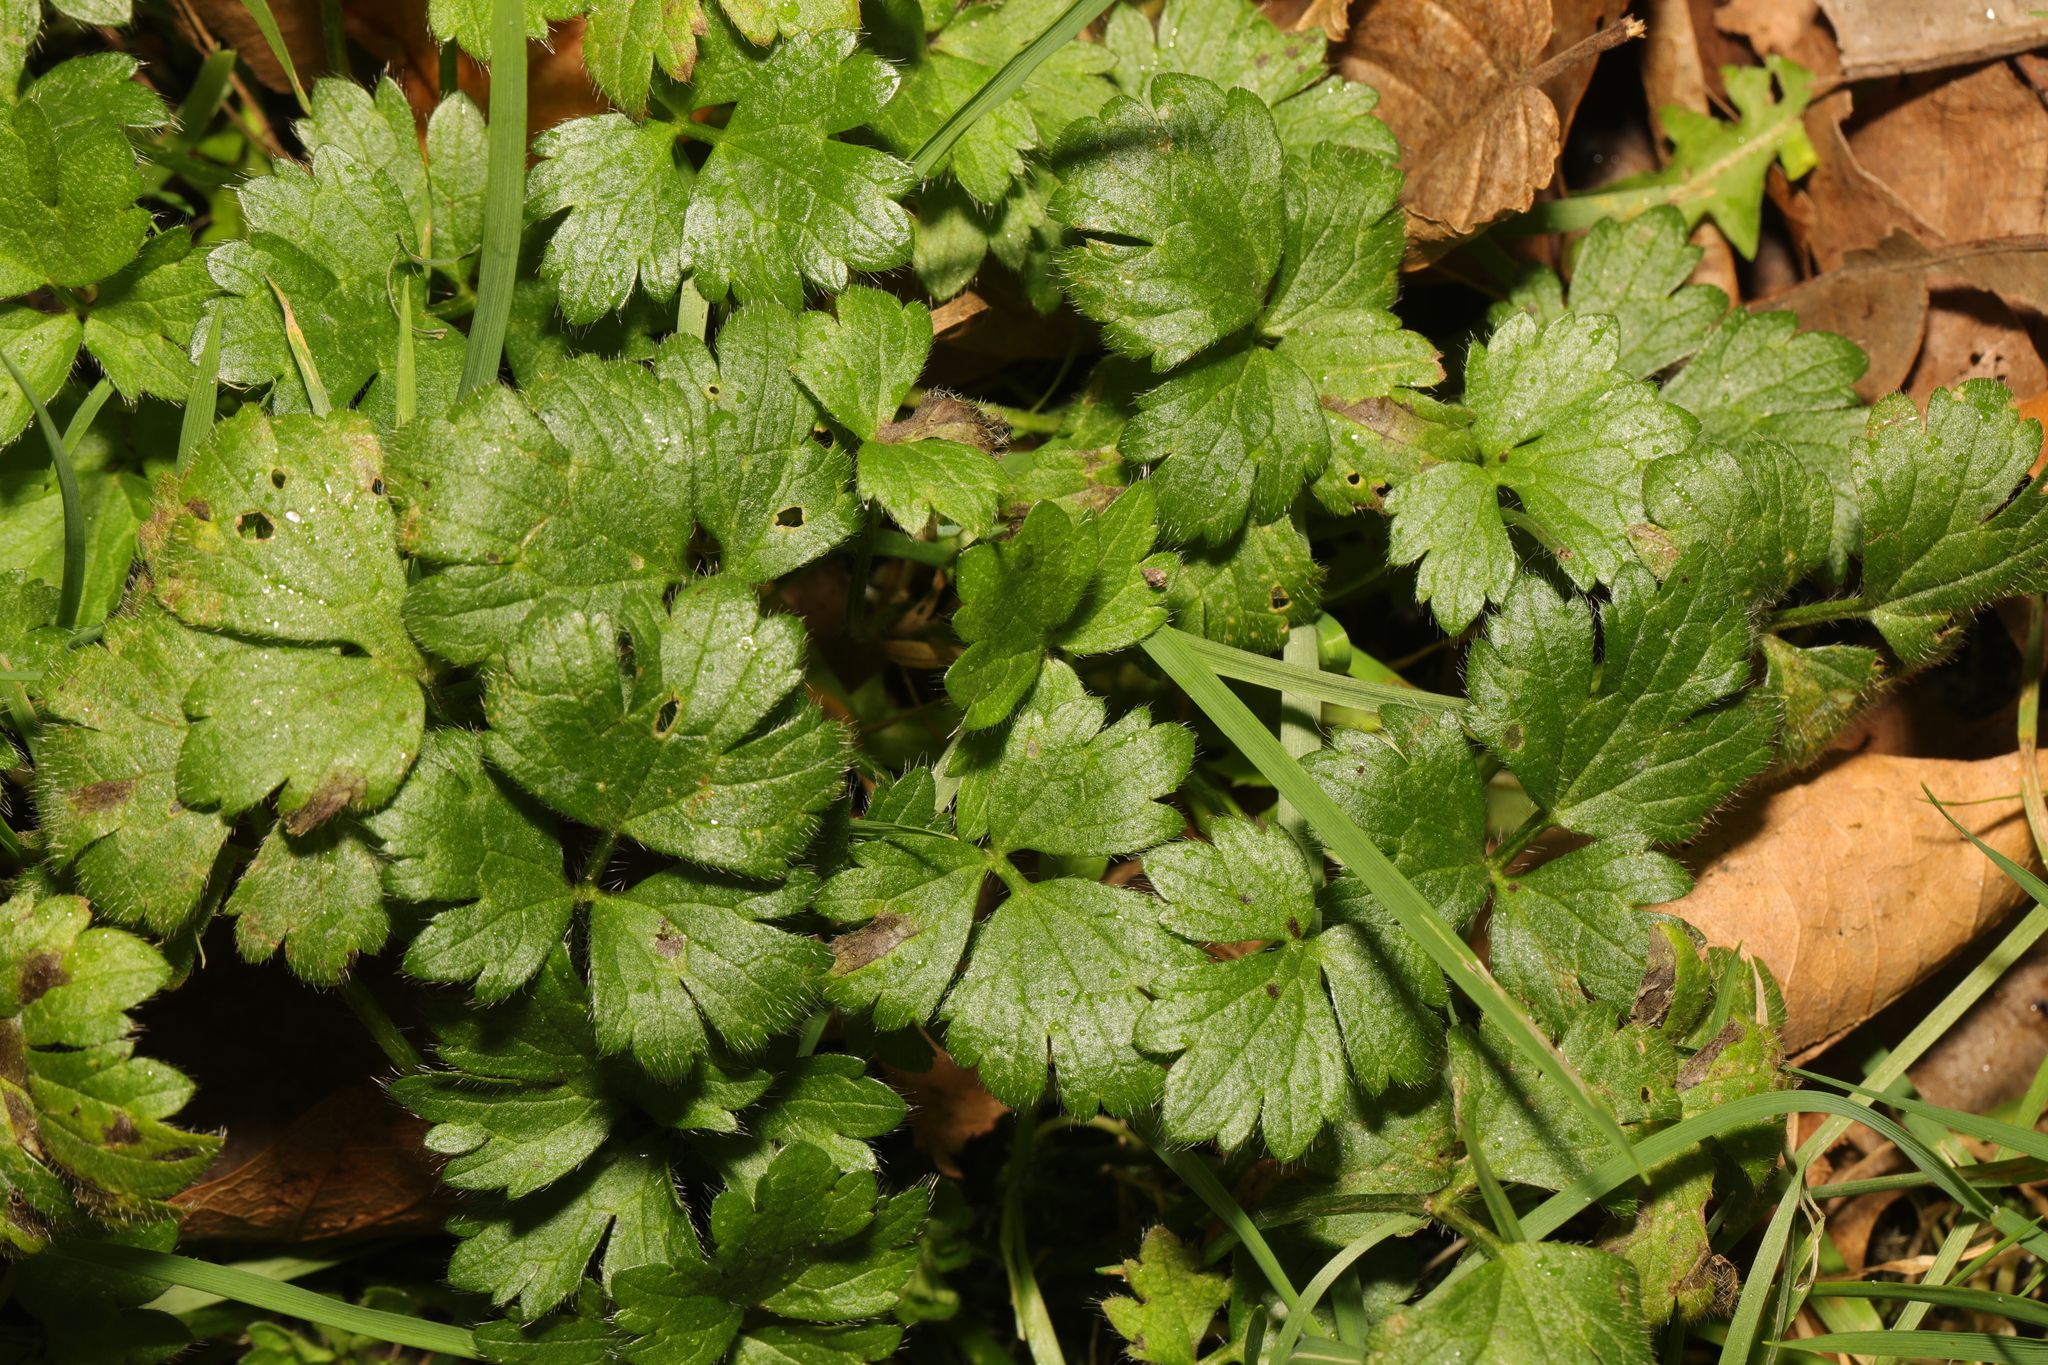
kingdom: Plantae
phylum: Tracheophyta
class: Magnoliopsida
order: Ranunculales
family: Ranunculaceae
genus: Ranunculus
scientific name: Ranunculus repens
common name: Creeping buttercup
